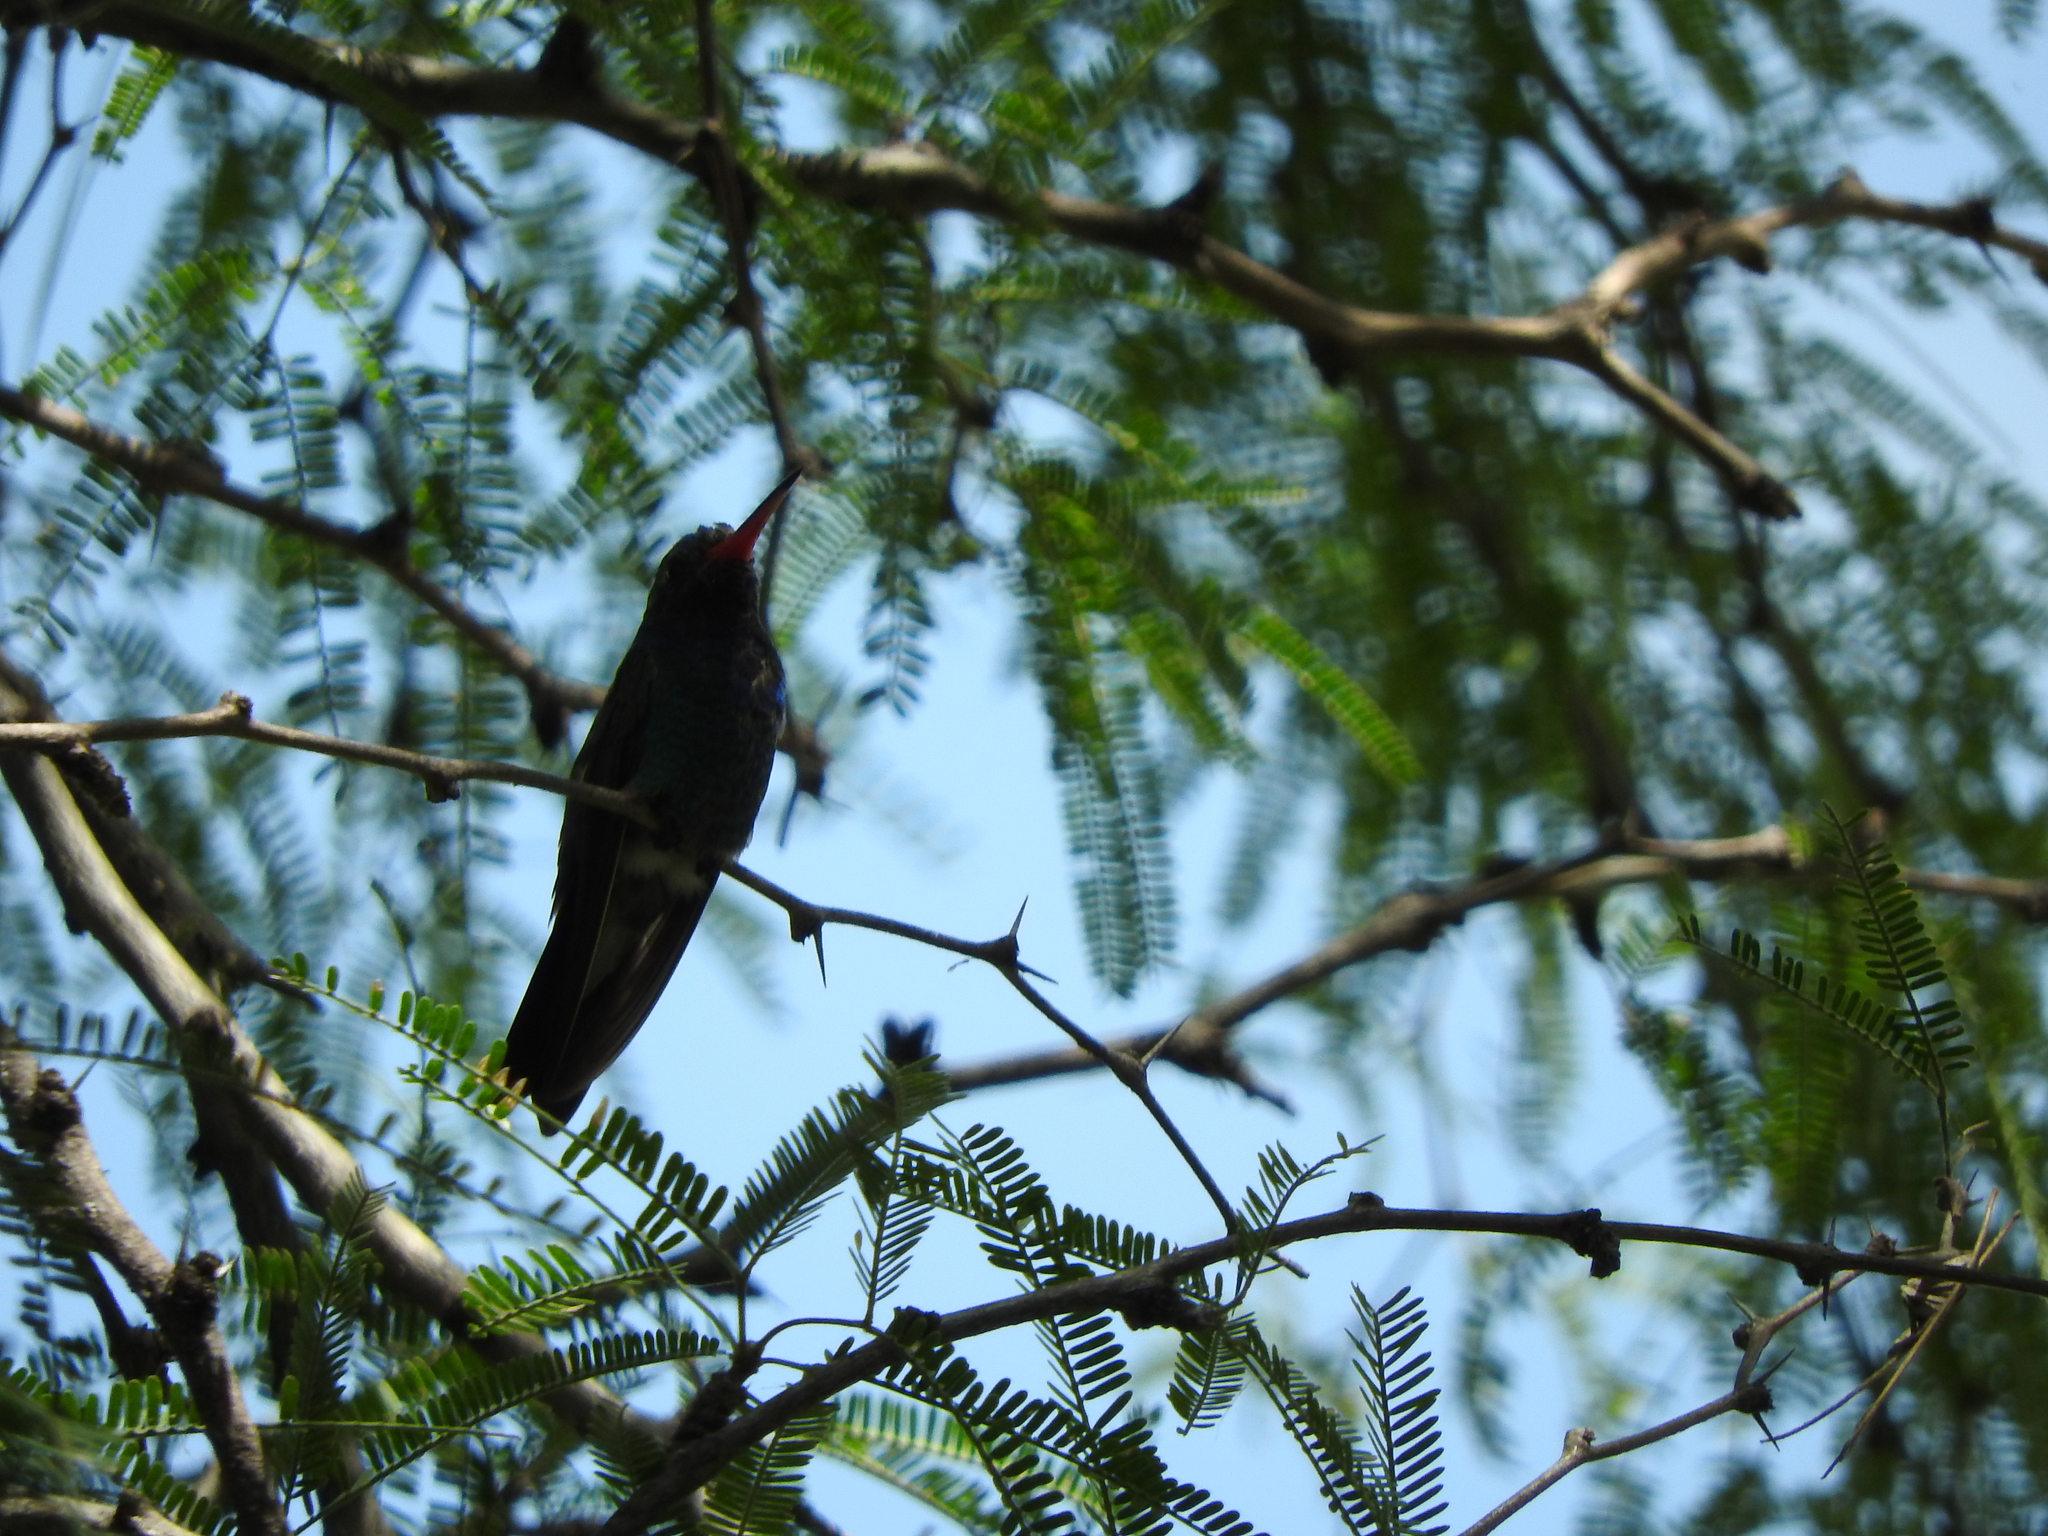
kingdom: Animalia
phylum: Chordata
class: Aves
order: Apodiformes
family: Trochilidae
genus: Cynanthus
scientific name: Cynanthus latirostris
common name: Broad-billed hummingbird
